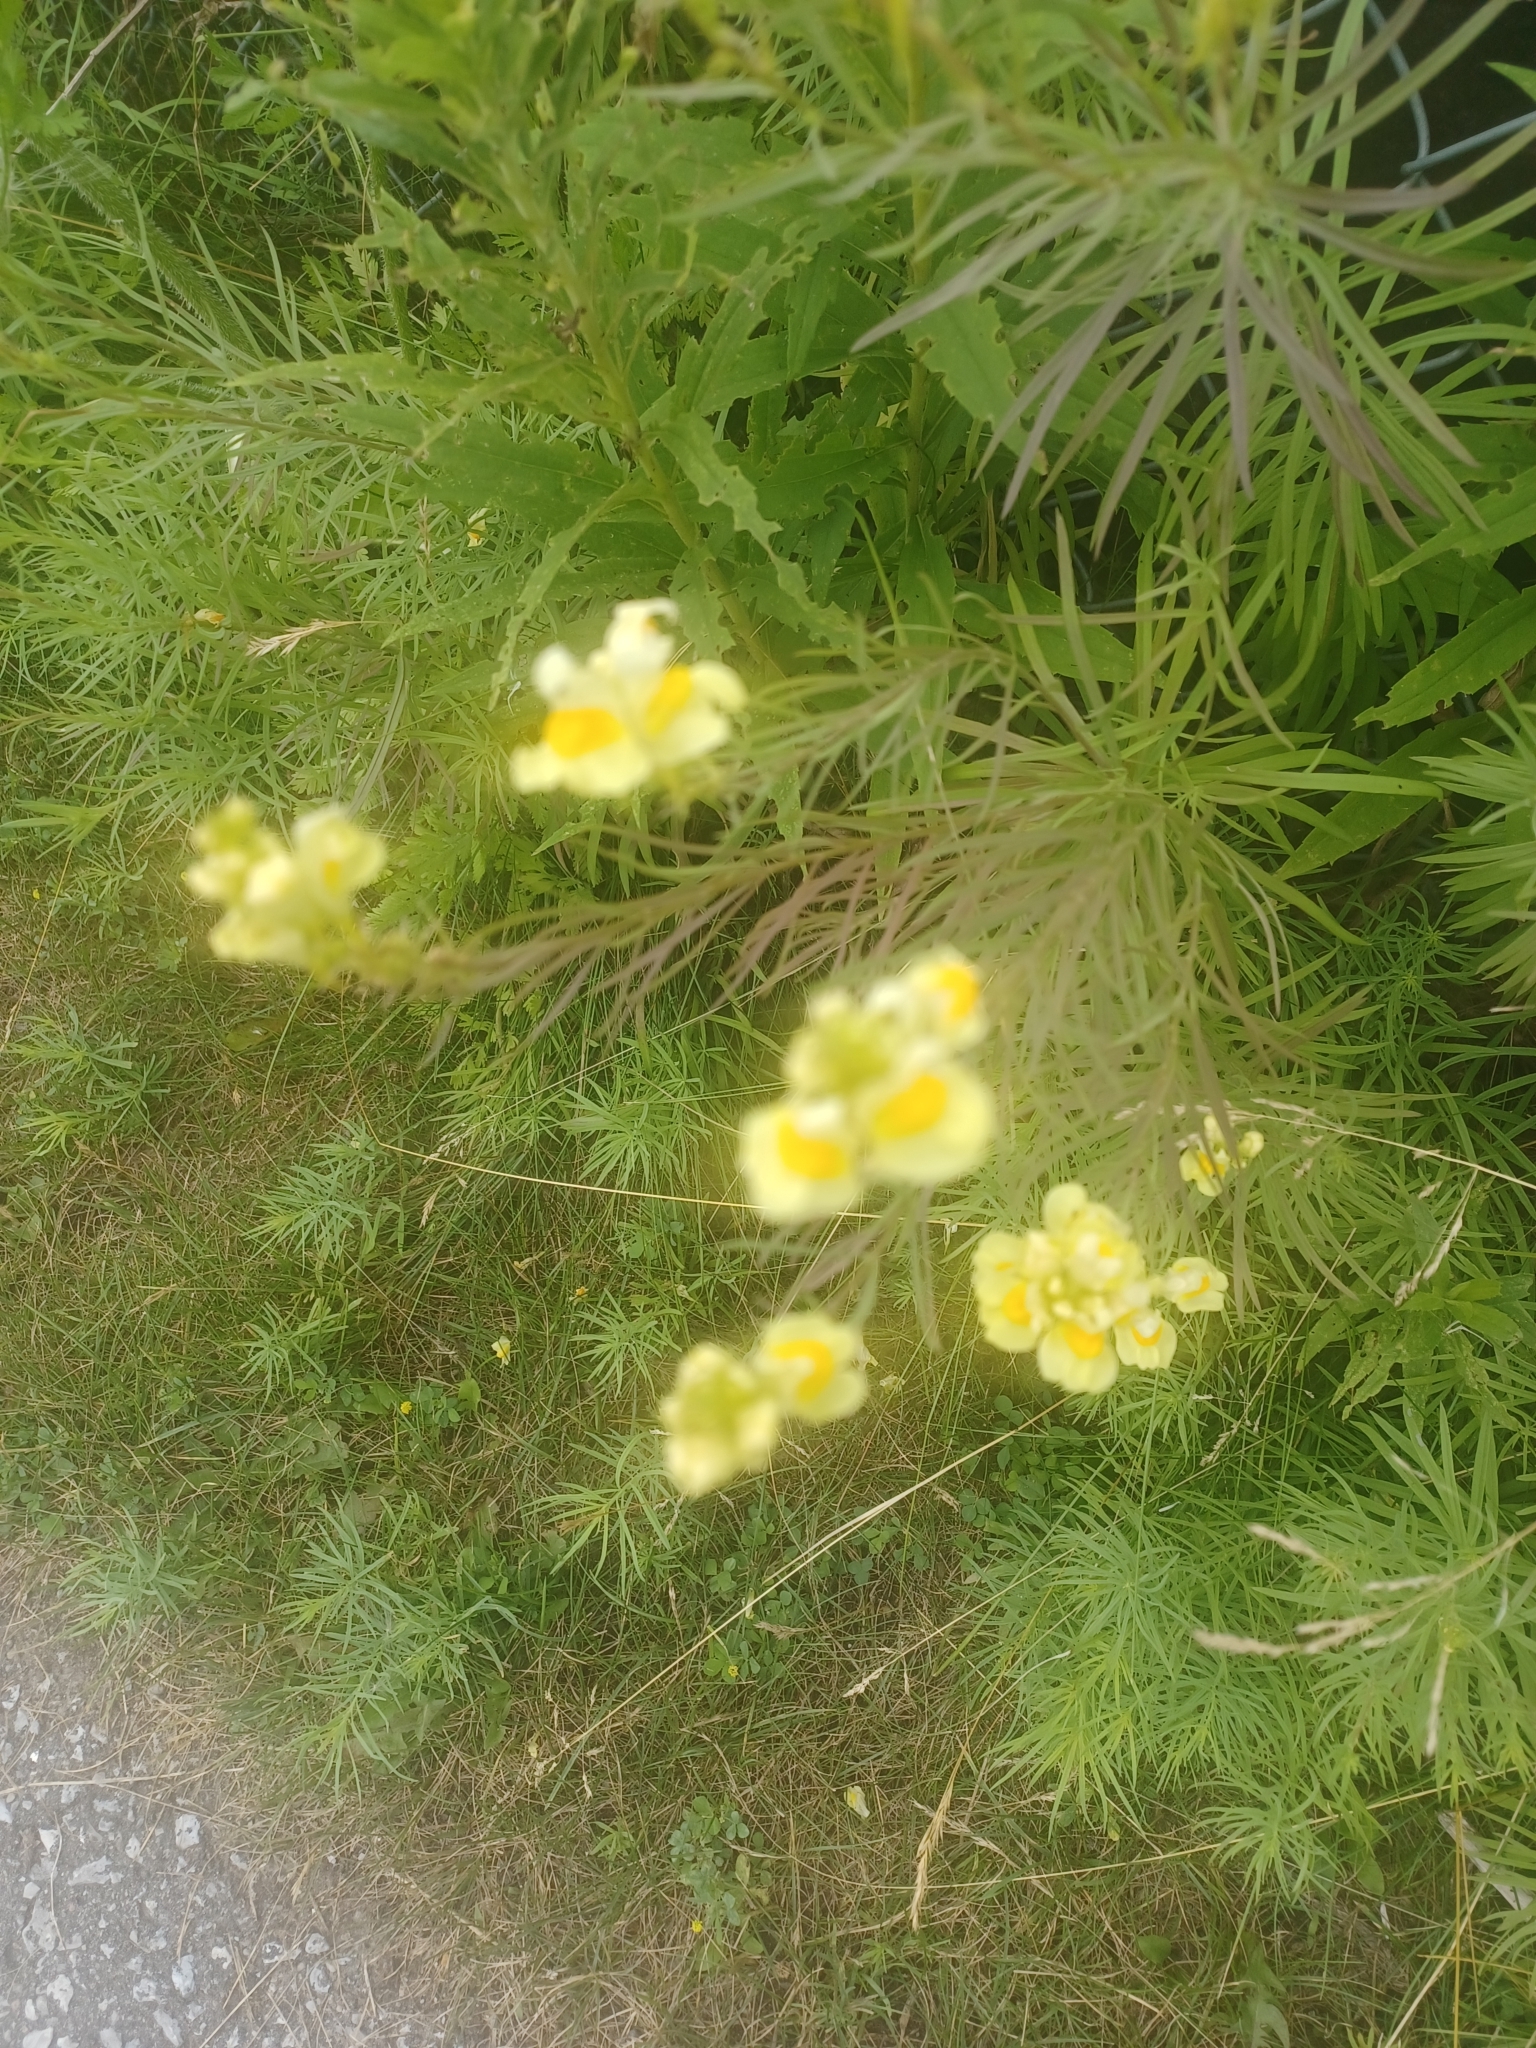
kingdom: Plantae
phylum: Tracheophyta
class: Magnoliopsida
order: Lamiales
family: Plantaginaceae
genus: Linaria
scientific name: Linaria vulgaris
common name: Butter and eggs
